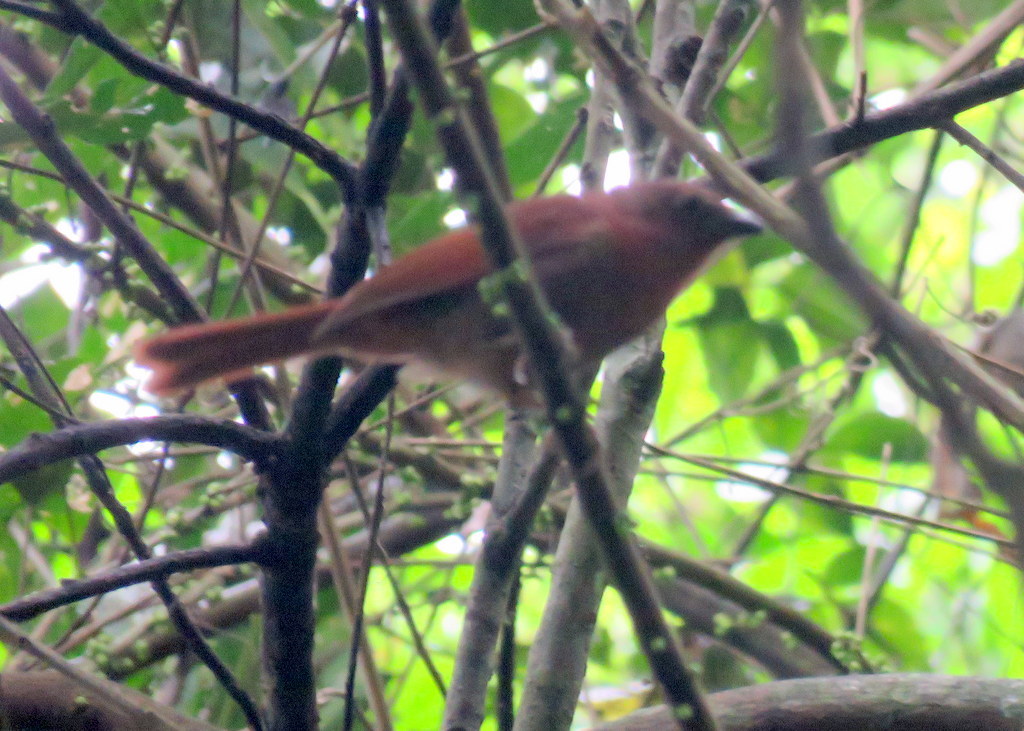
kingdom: Animalia
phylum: Chordata
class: Aves
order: Passeriformes
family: Cardinalidae
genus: Habia
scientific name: Habia rubica
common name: Red-crowned ant-tanager
